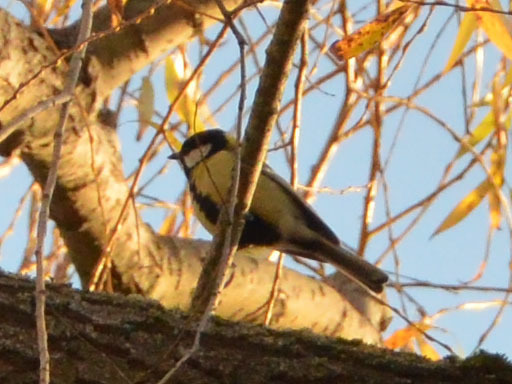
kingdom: Animalia
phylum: Chordata
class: Aves
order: Passeriformes
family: Paridae
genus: Parus
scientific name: Parus major
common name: Great tit
